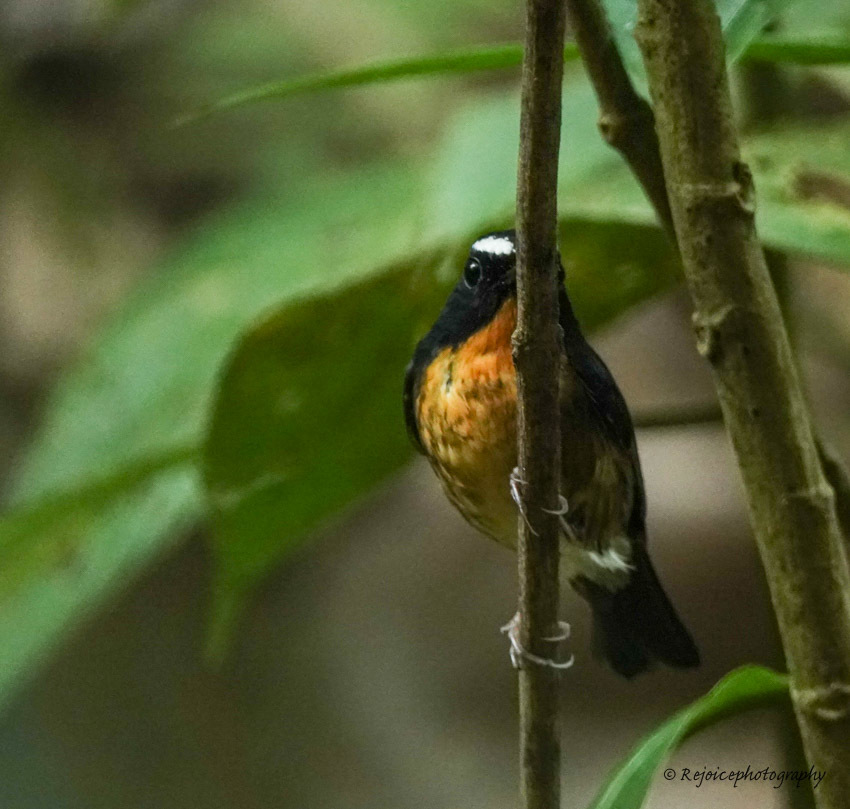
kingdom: Animalia
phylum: Chordata
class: Aves
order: Passeriformes
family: Muscicapidae
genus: Ficedula
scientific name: Ficedula hyperythra
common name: Snowy-browed flycatcher
